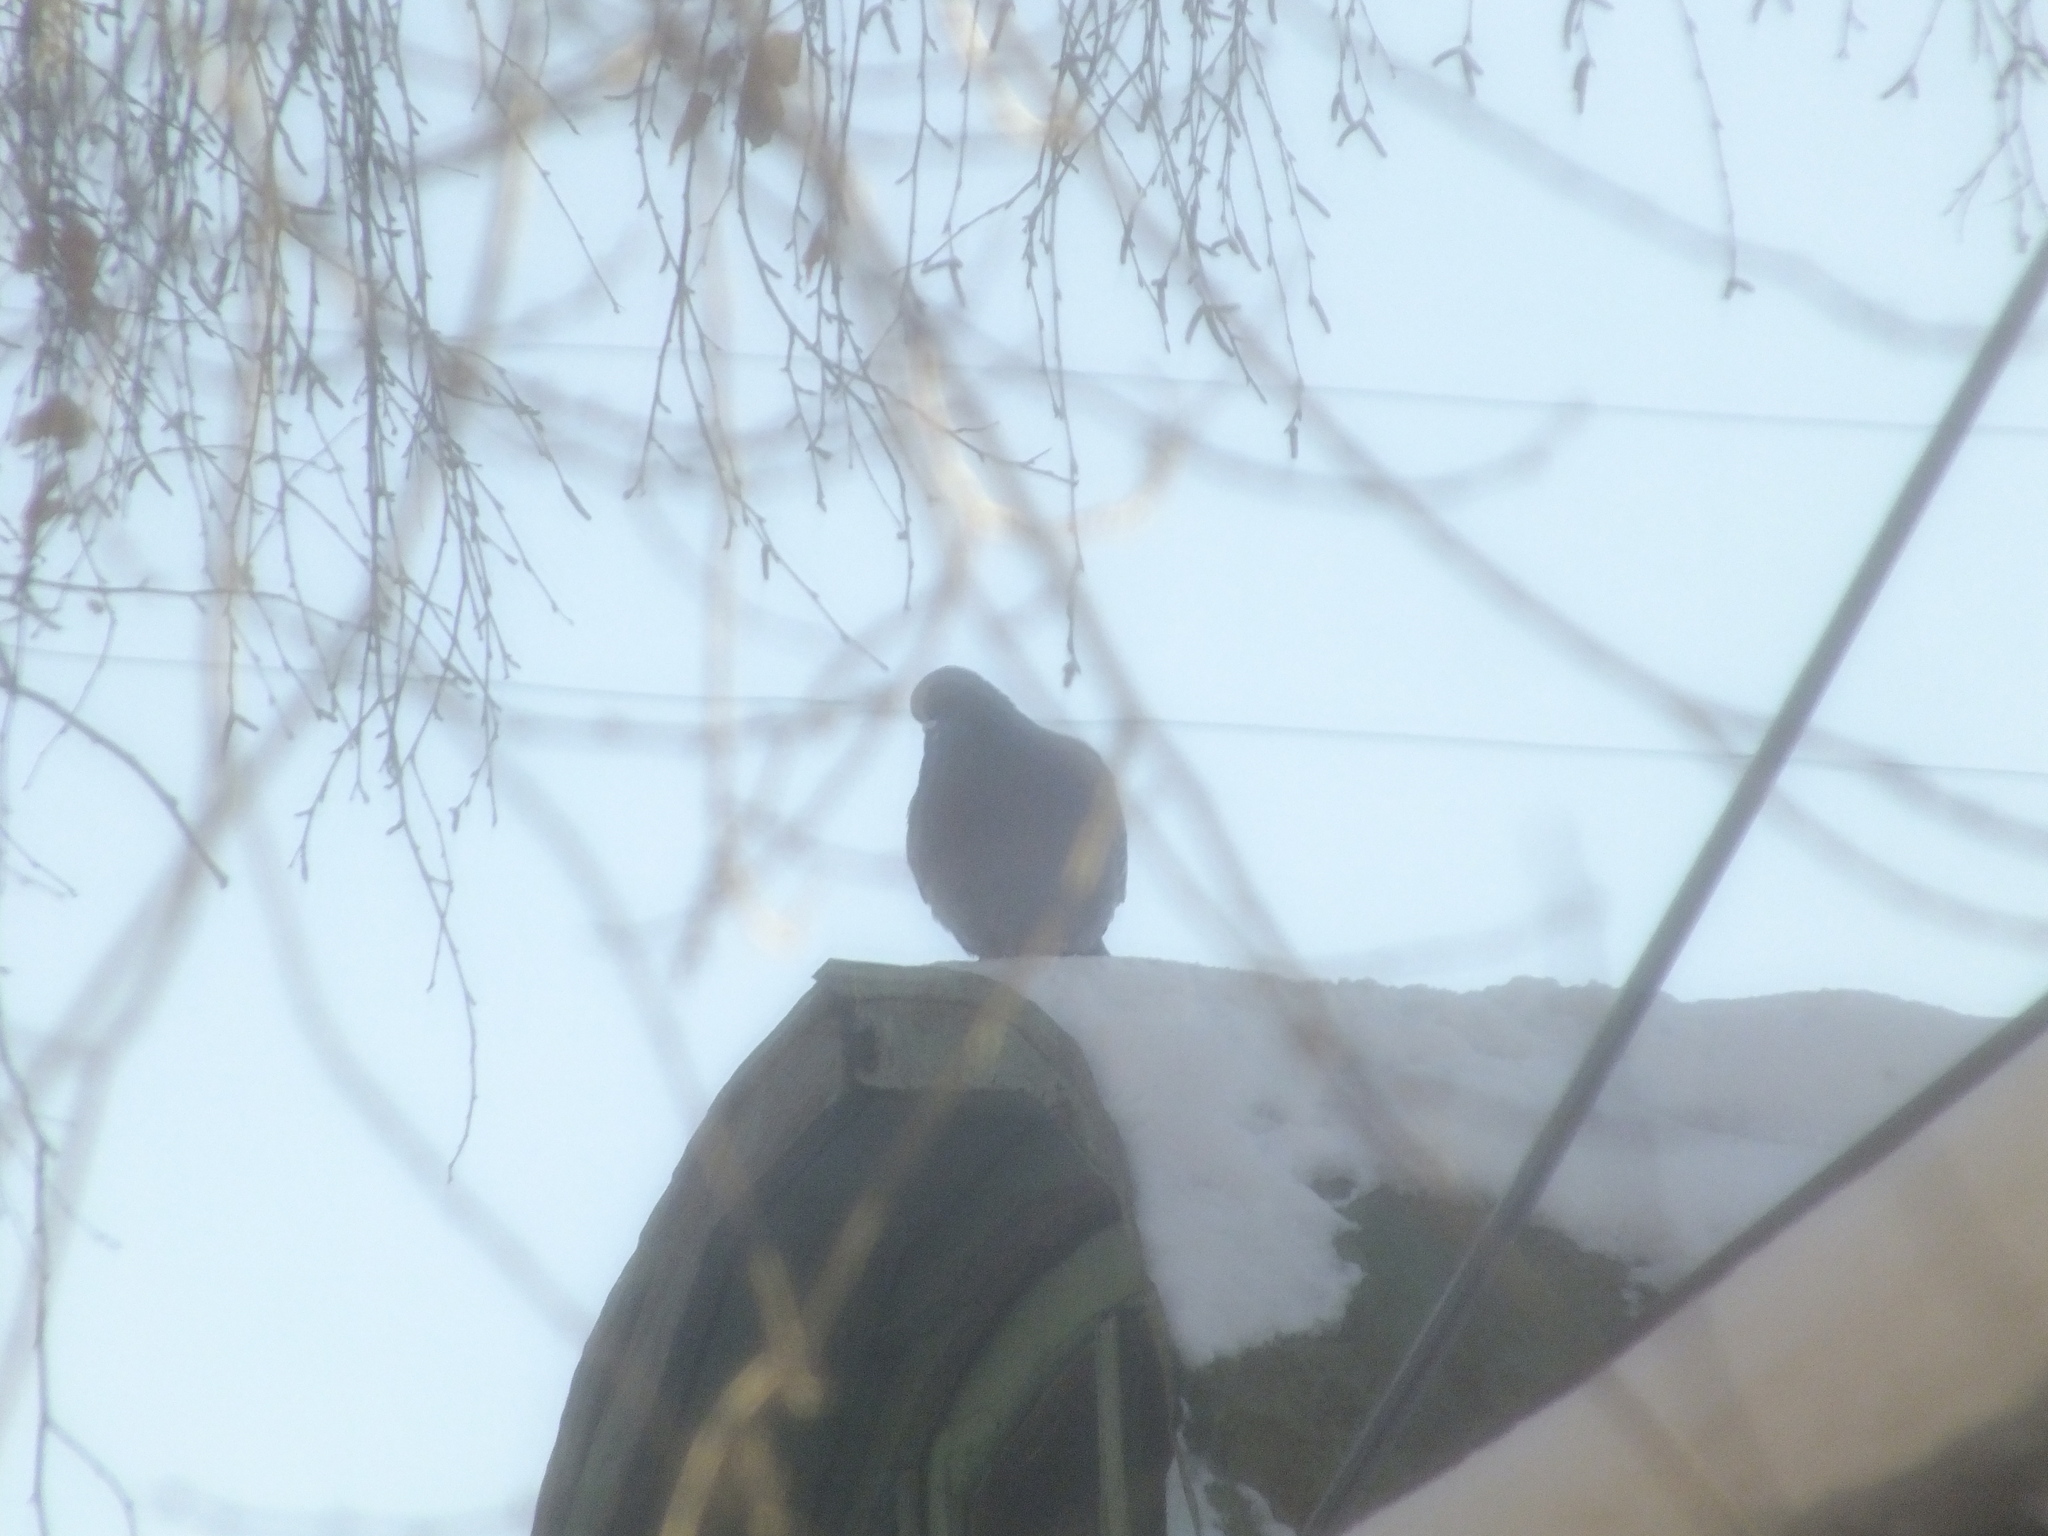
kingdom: Animalia
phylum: Chordata
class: Aves
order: Columbiformes
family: Columbidae
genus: Columba
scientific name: Columba livia
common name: Rock pigeon
